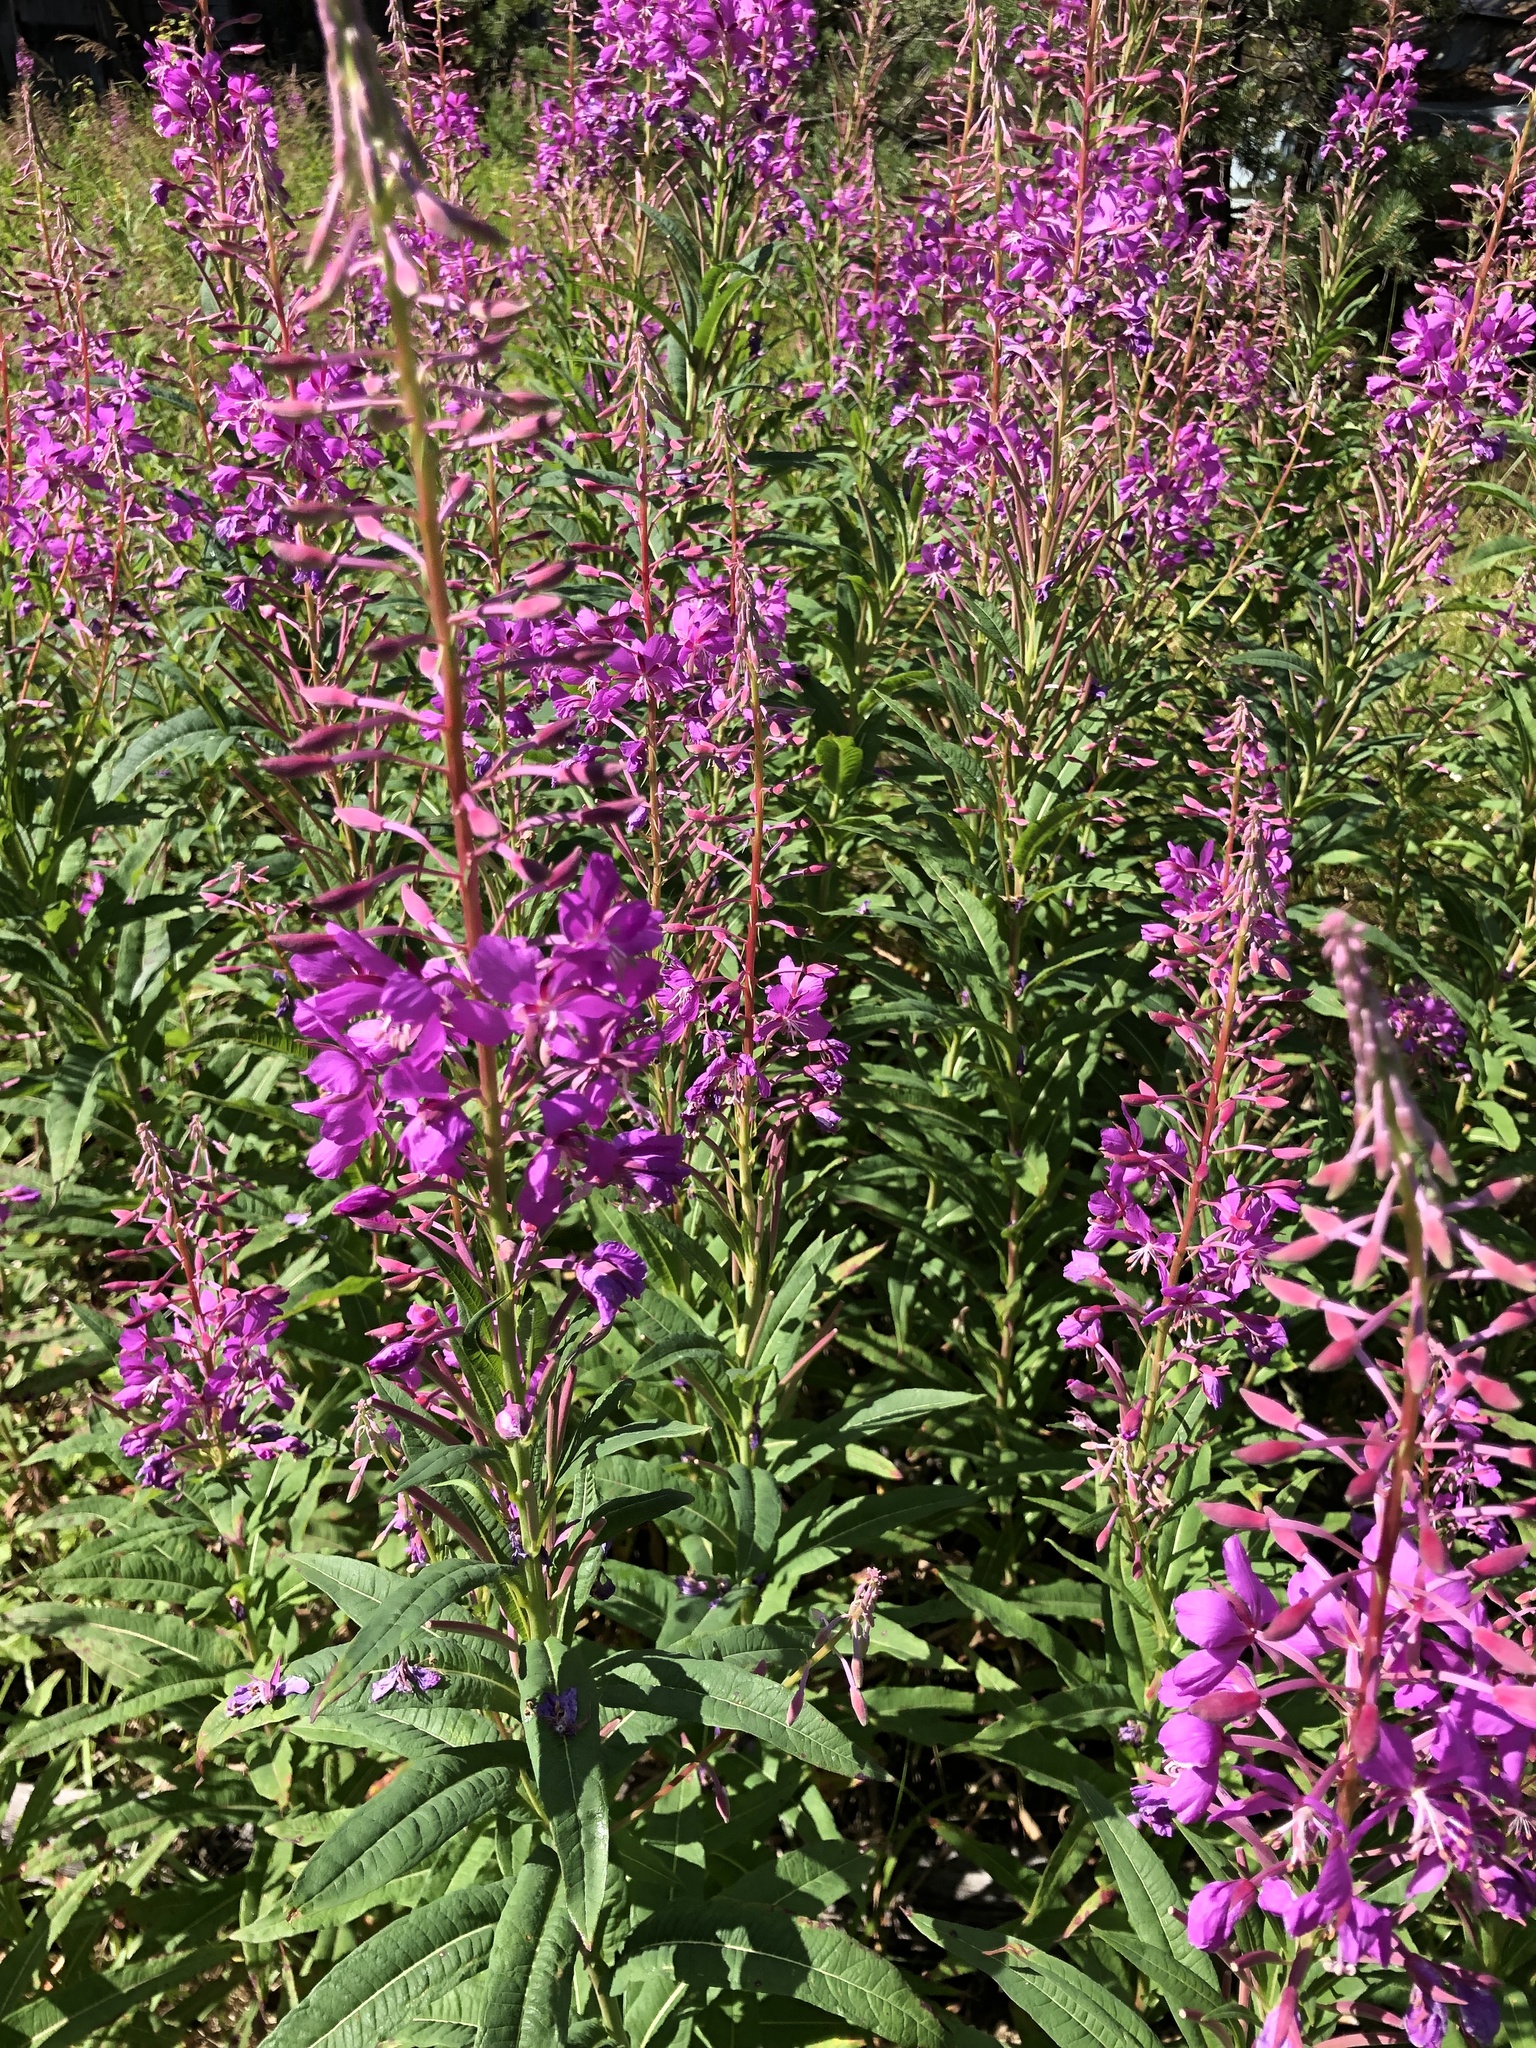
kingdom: Plantae
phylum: Tracheophyta
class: Magnoliopsida
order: Myrtales
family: Onagraceae
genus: Chamaenerion
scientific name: Chamaenerion angustifolium
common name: Fireweed
